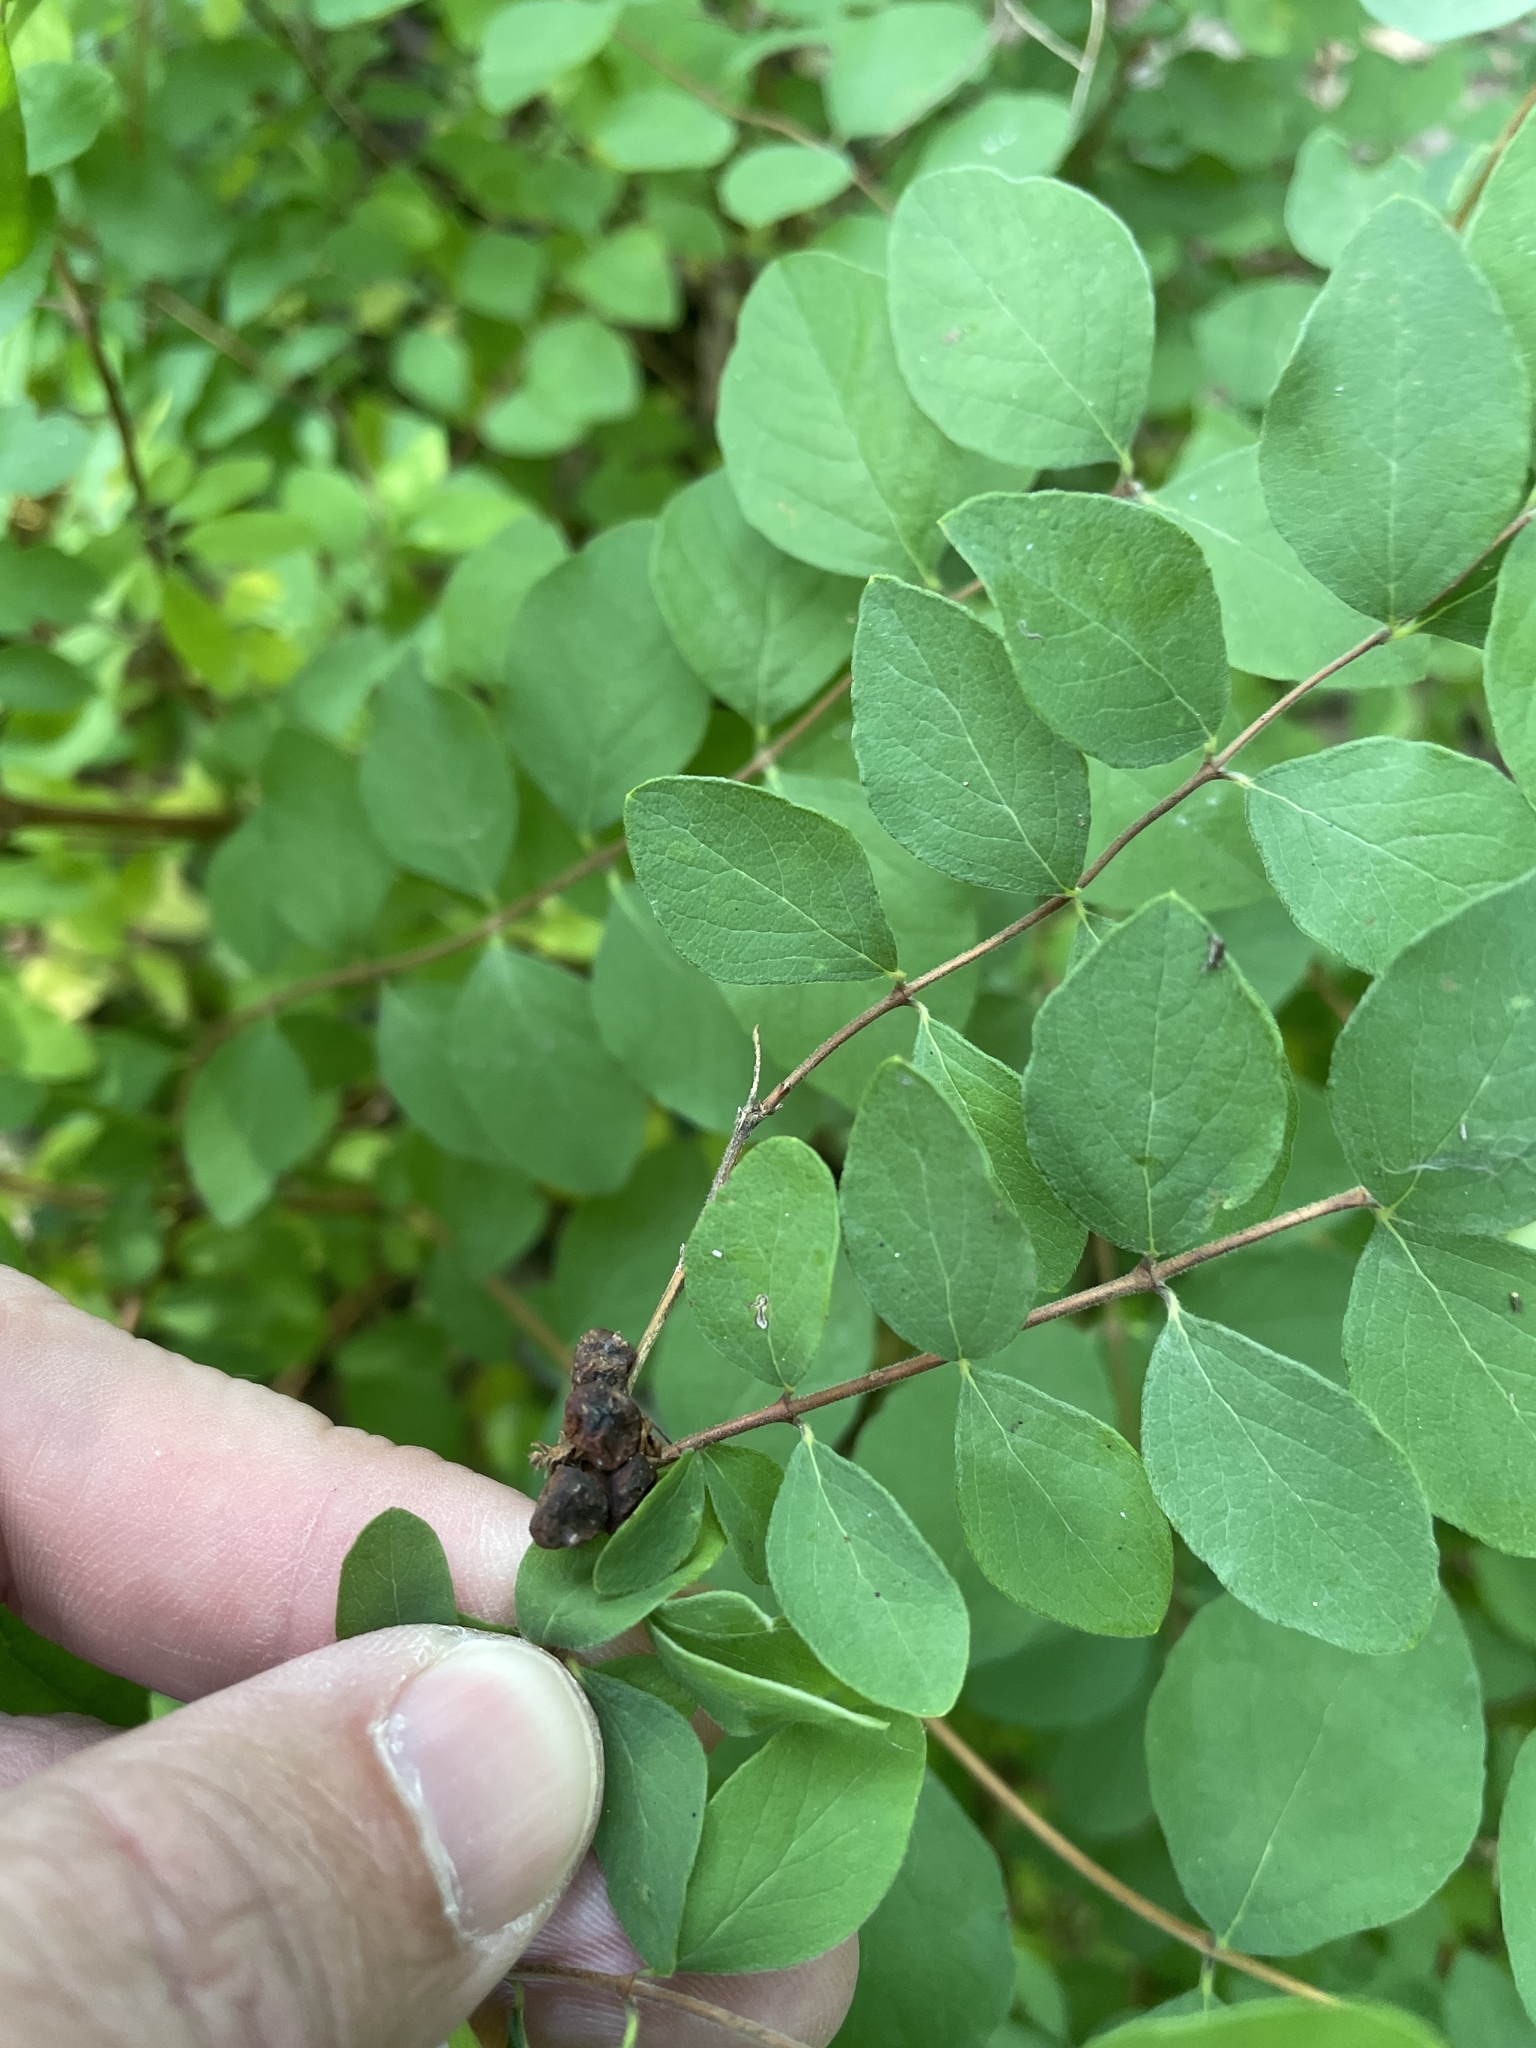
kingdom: Plantae
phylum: Tracheophyta
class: Magnoliopsida
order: Dipsacales
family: Caprifoliaceae
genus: Symphoricarpos
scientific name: Symphoricarpos orbiculatus
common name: Coralberry
